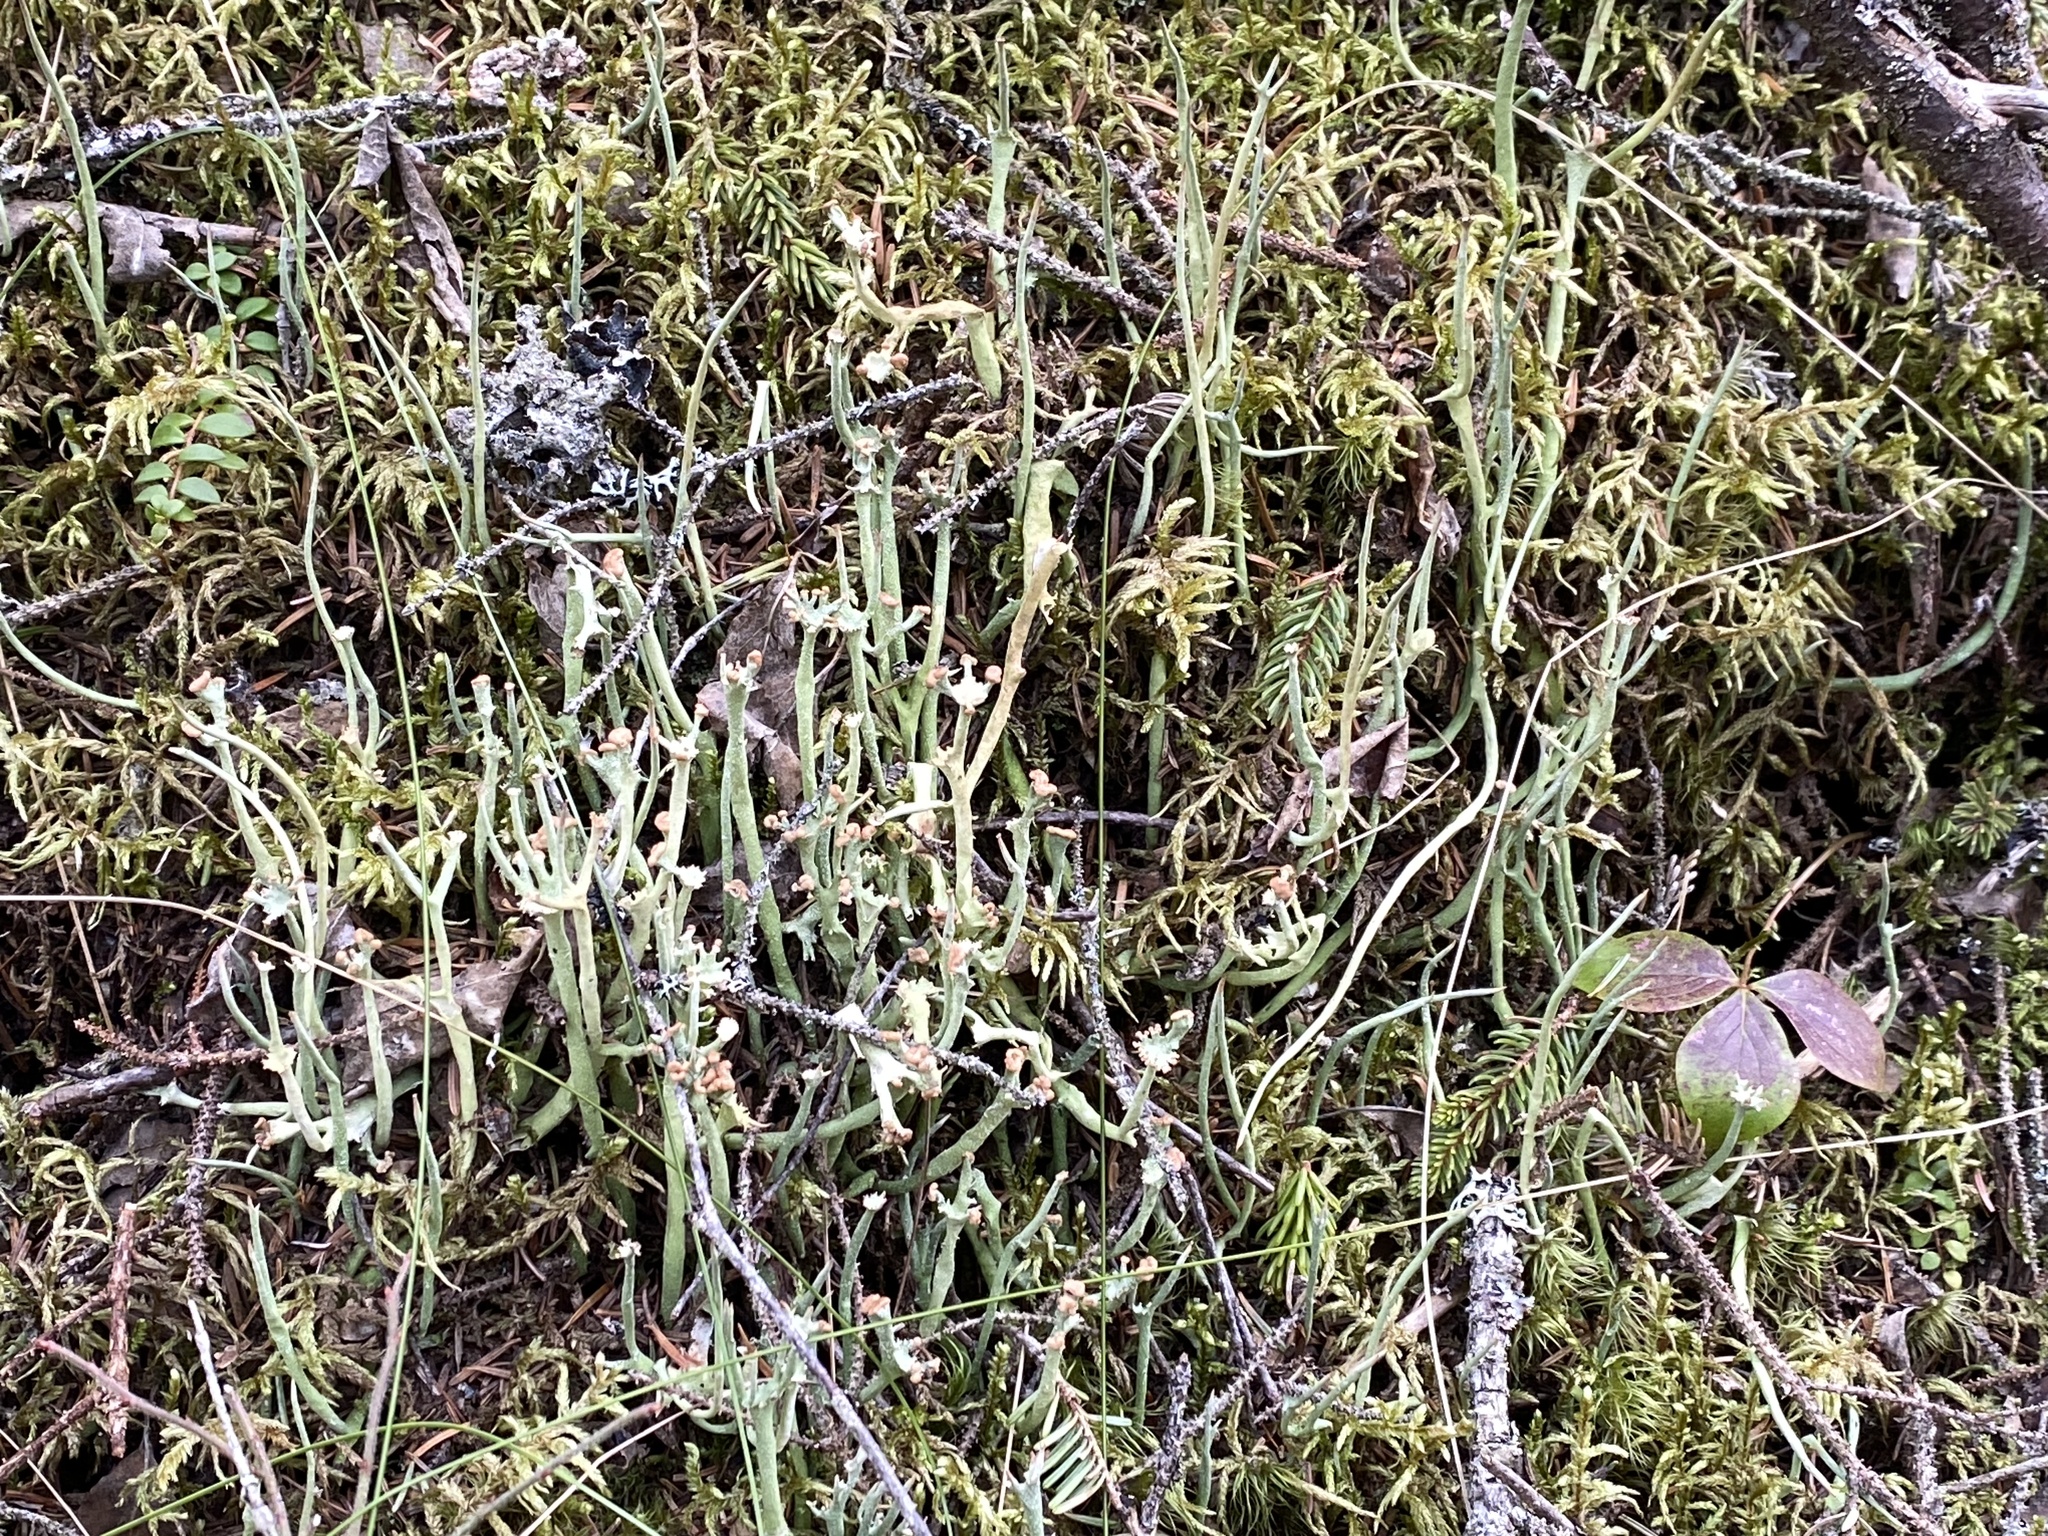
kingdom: Fungi
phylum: Ascomycota
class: Lecanoromycetes
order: Lecanorales
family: Cladoniaceae
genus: Cladonia
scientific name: Cladonia maxima
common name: Giant cladonia lichen
